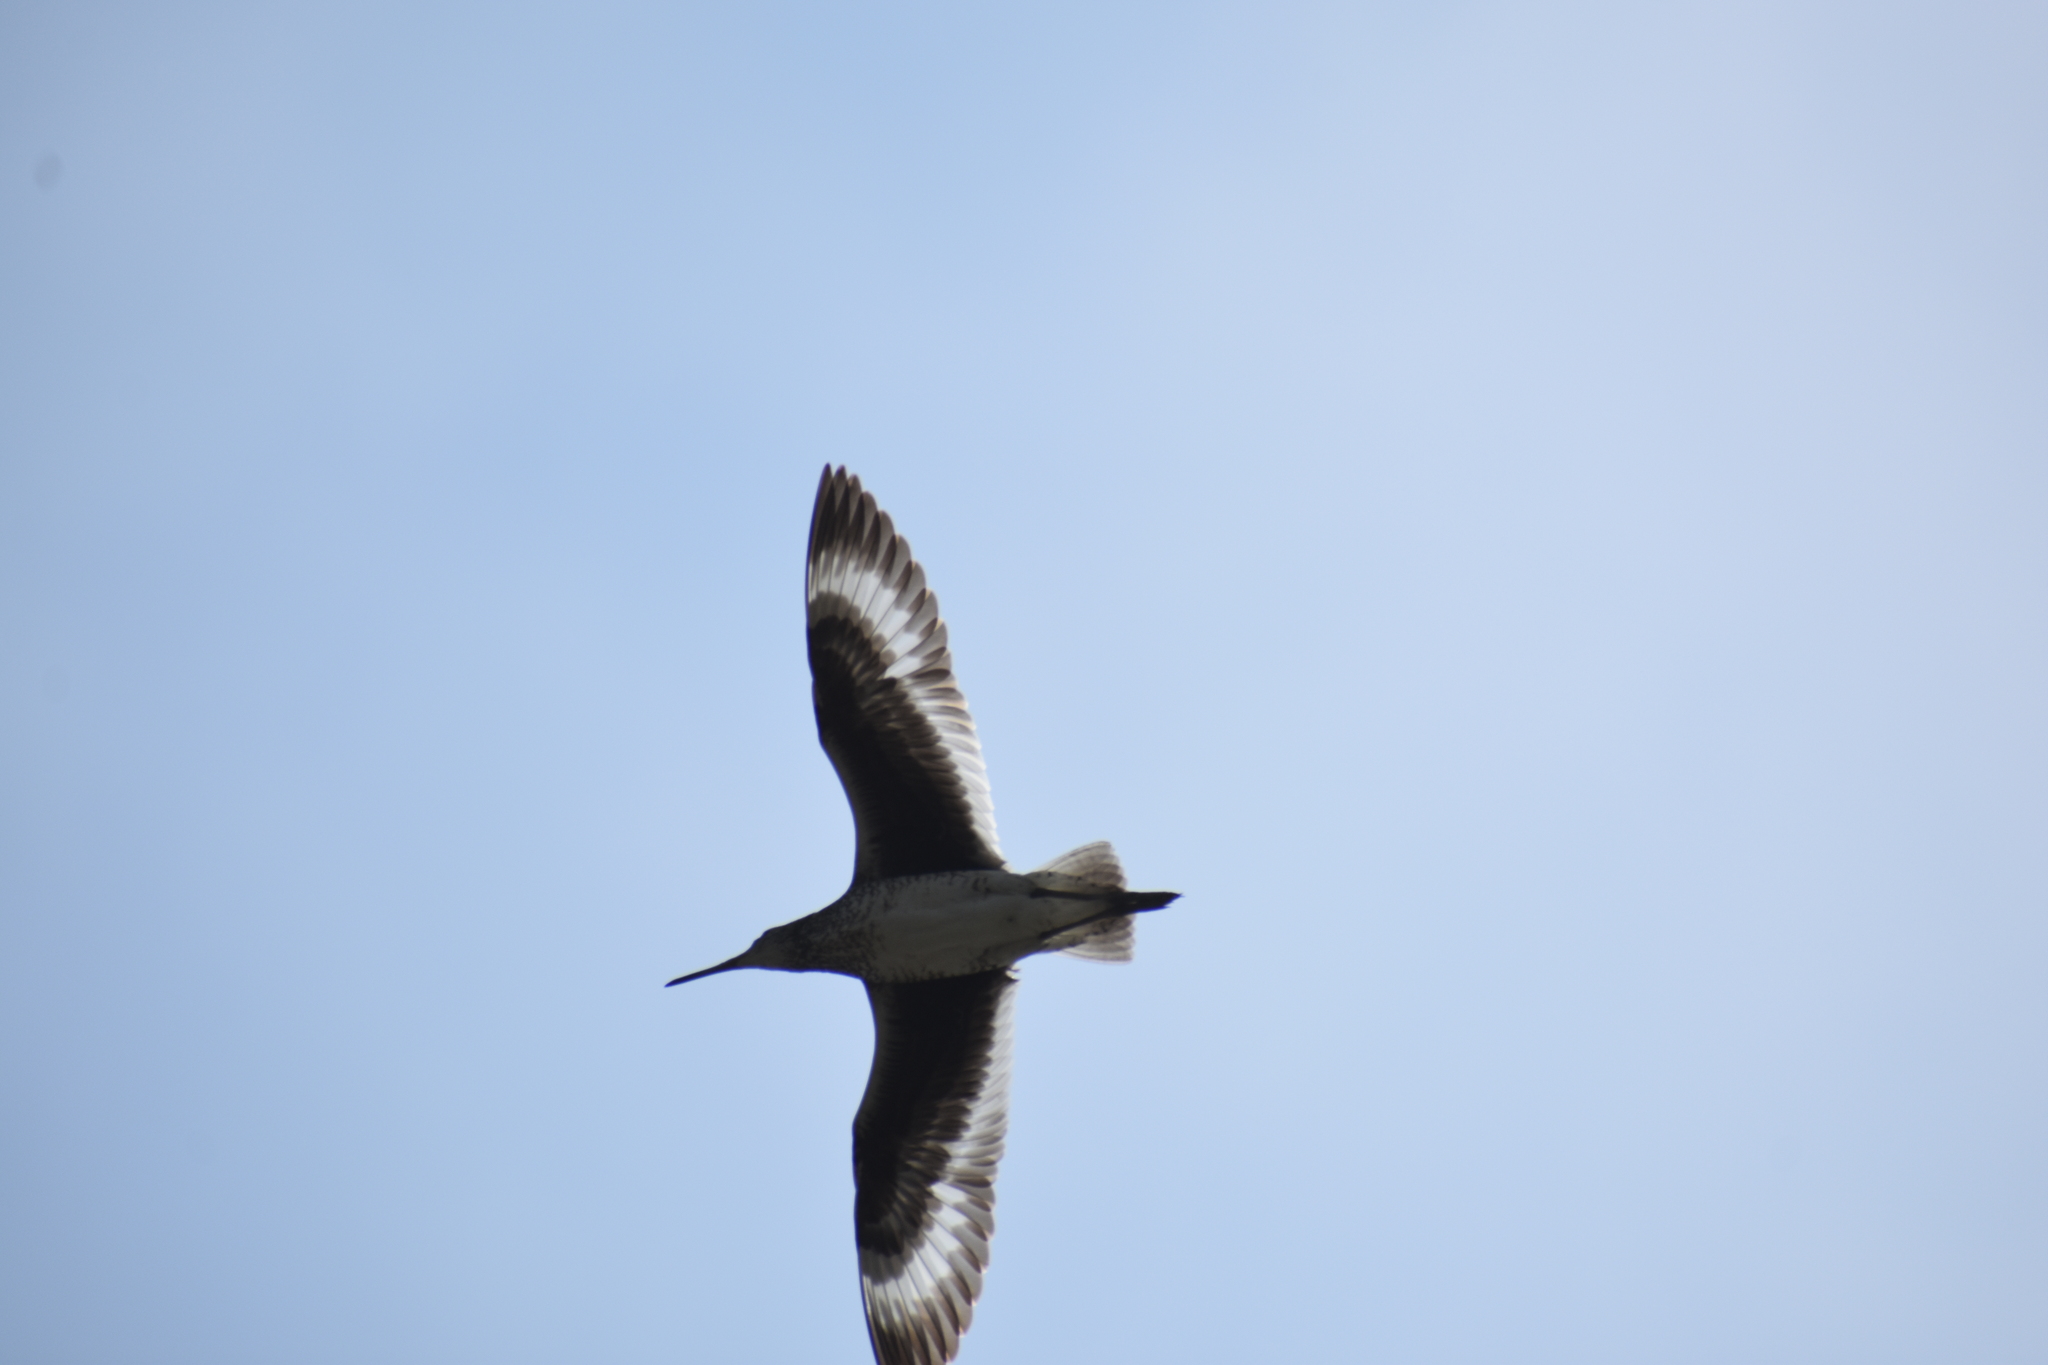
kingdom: Animalia
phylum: Chordata
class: Aves
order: Charadriiformes
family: Scolopacidae
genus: Tringa
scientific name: Tringa semipalmata
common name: Willet
